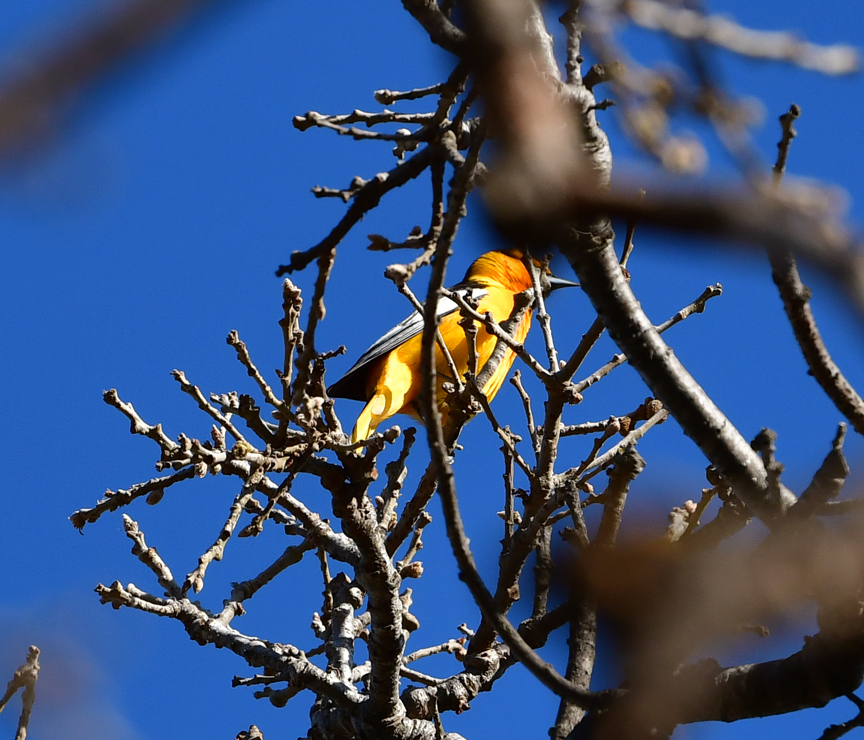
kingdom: Animalia
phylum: Chordata
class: Aves
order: Passeriformes
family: Icteridae
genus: Icterus
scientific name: Icterus bullockii
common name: Bullock's oriole
